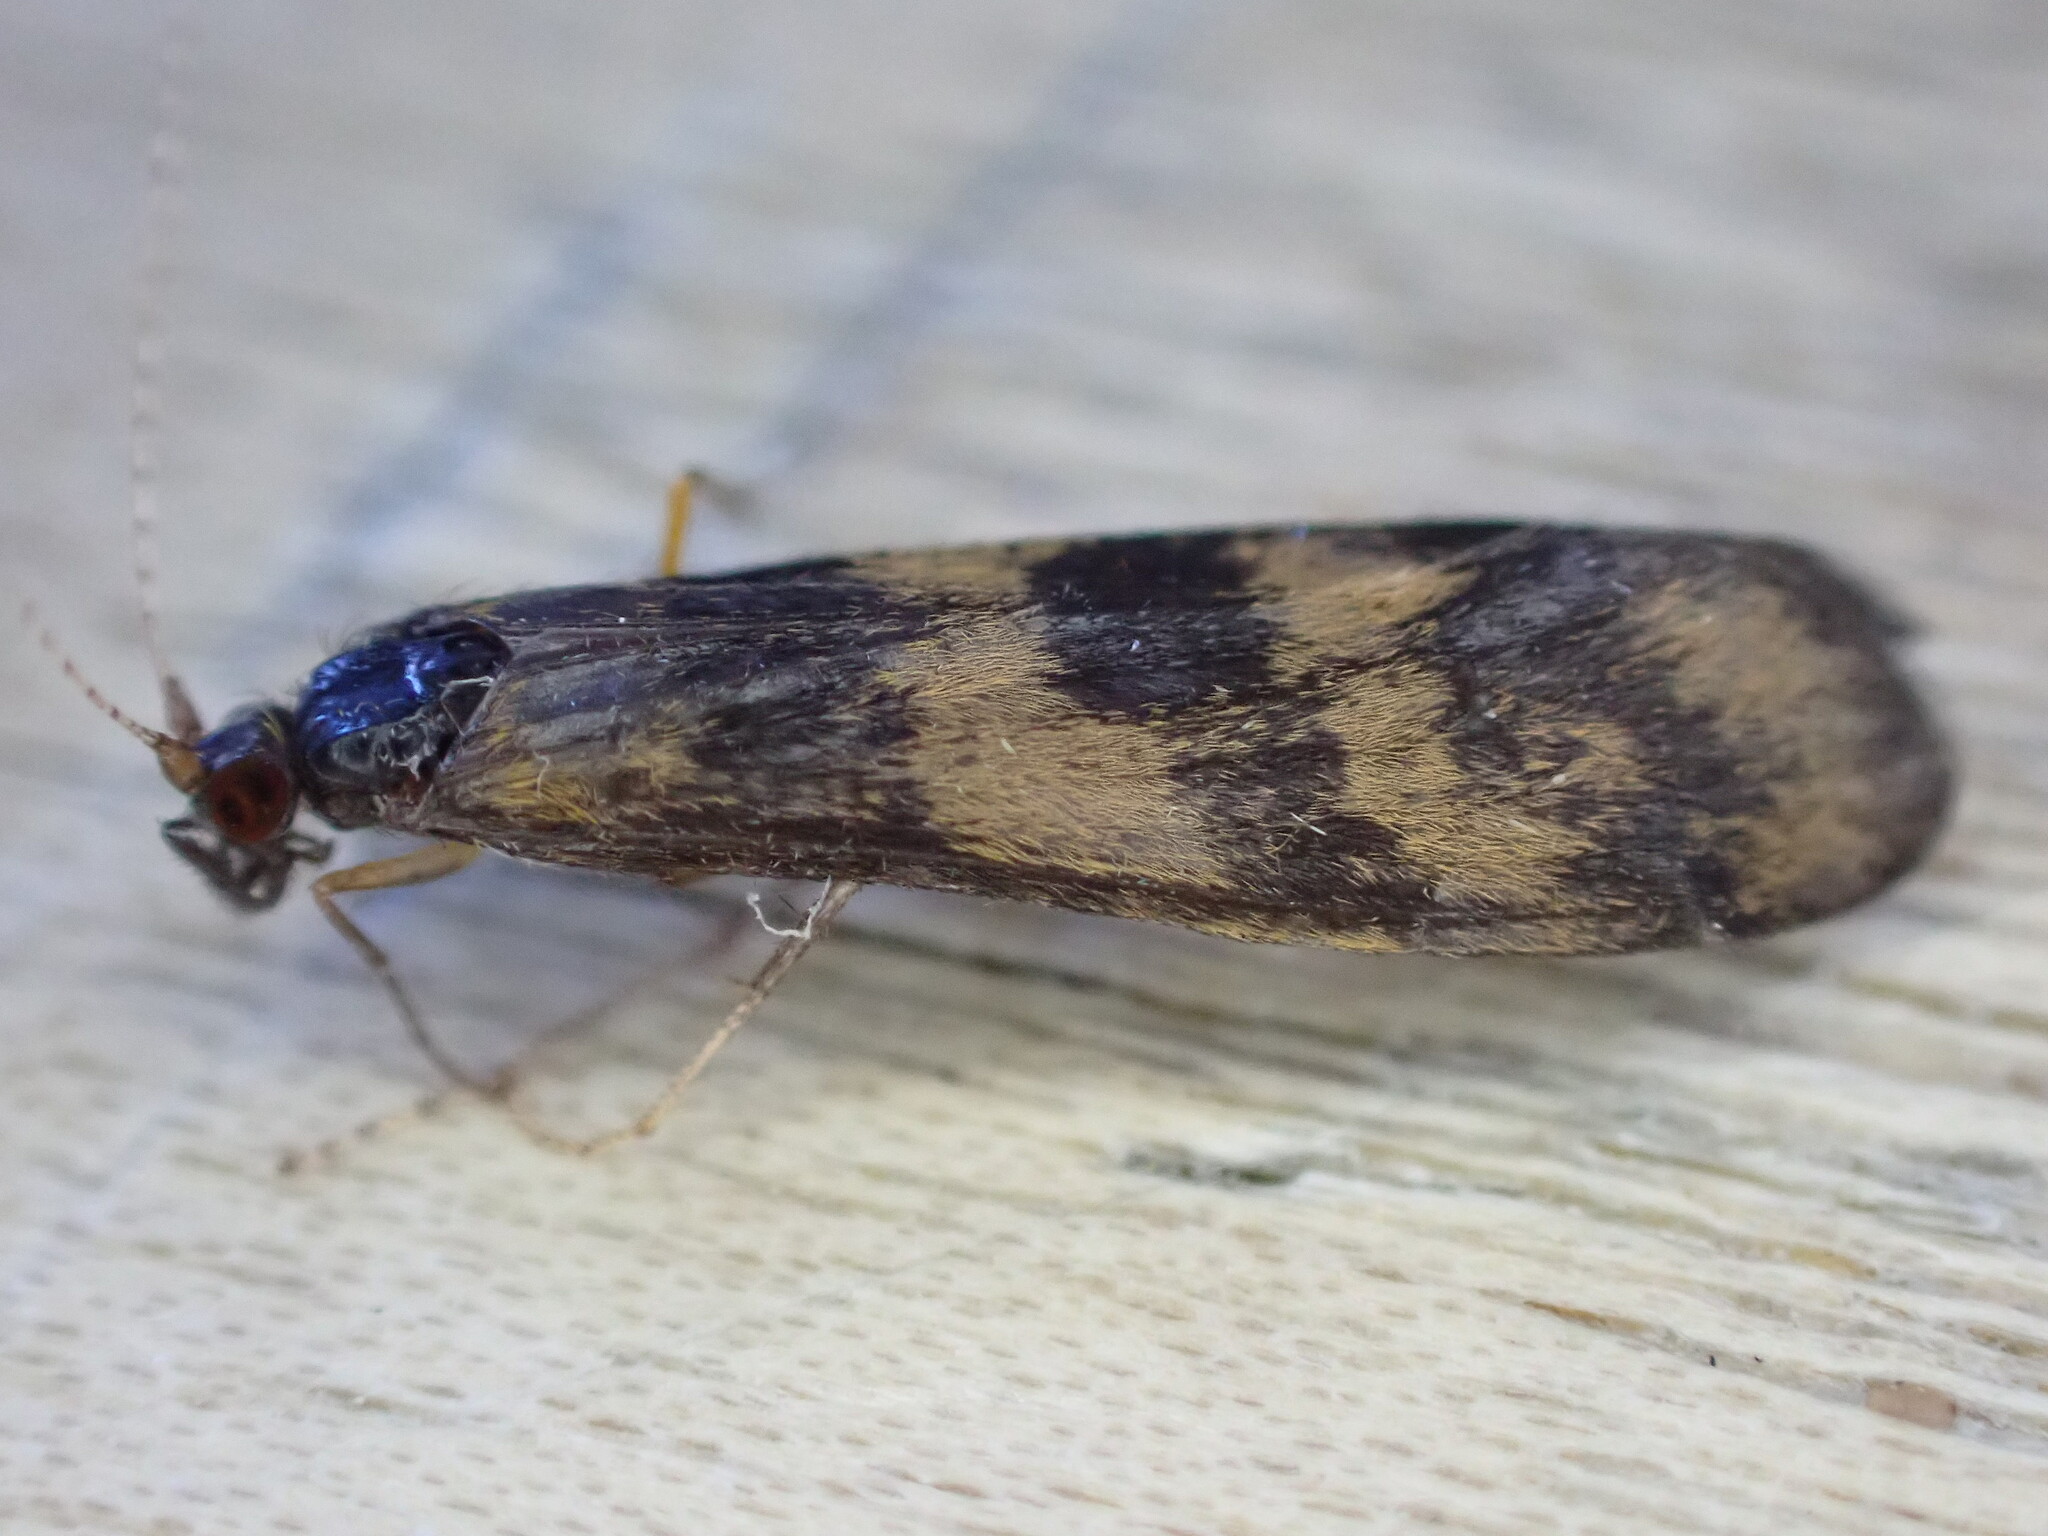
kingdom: Animalia
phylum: Arthropoda
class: Insecta
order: Trichoptera
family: Leptoceridae
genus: Mystacides
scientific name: Mystacides longicornis
